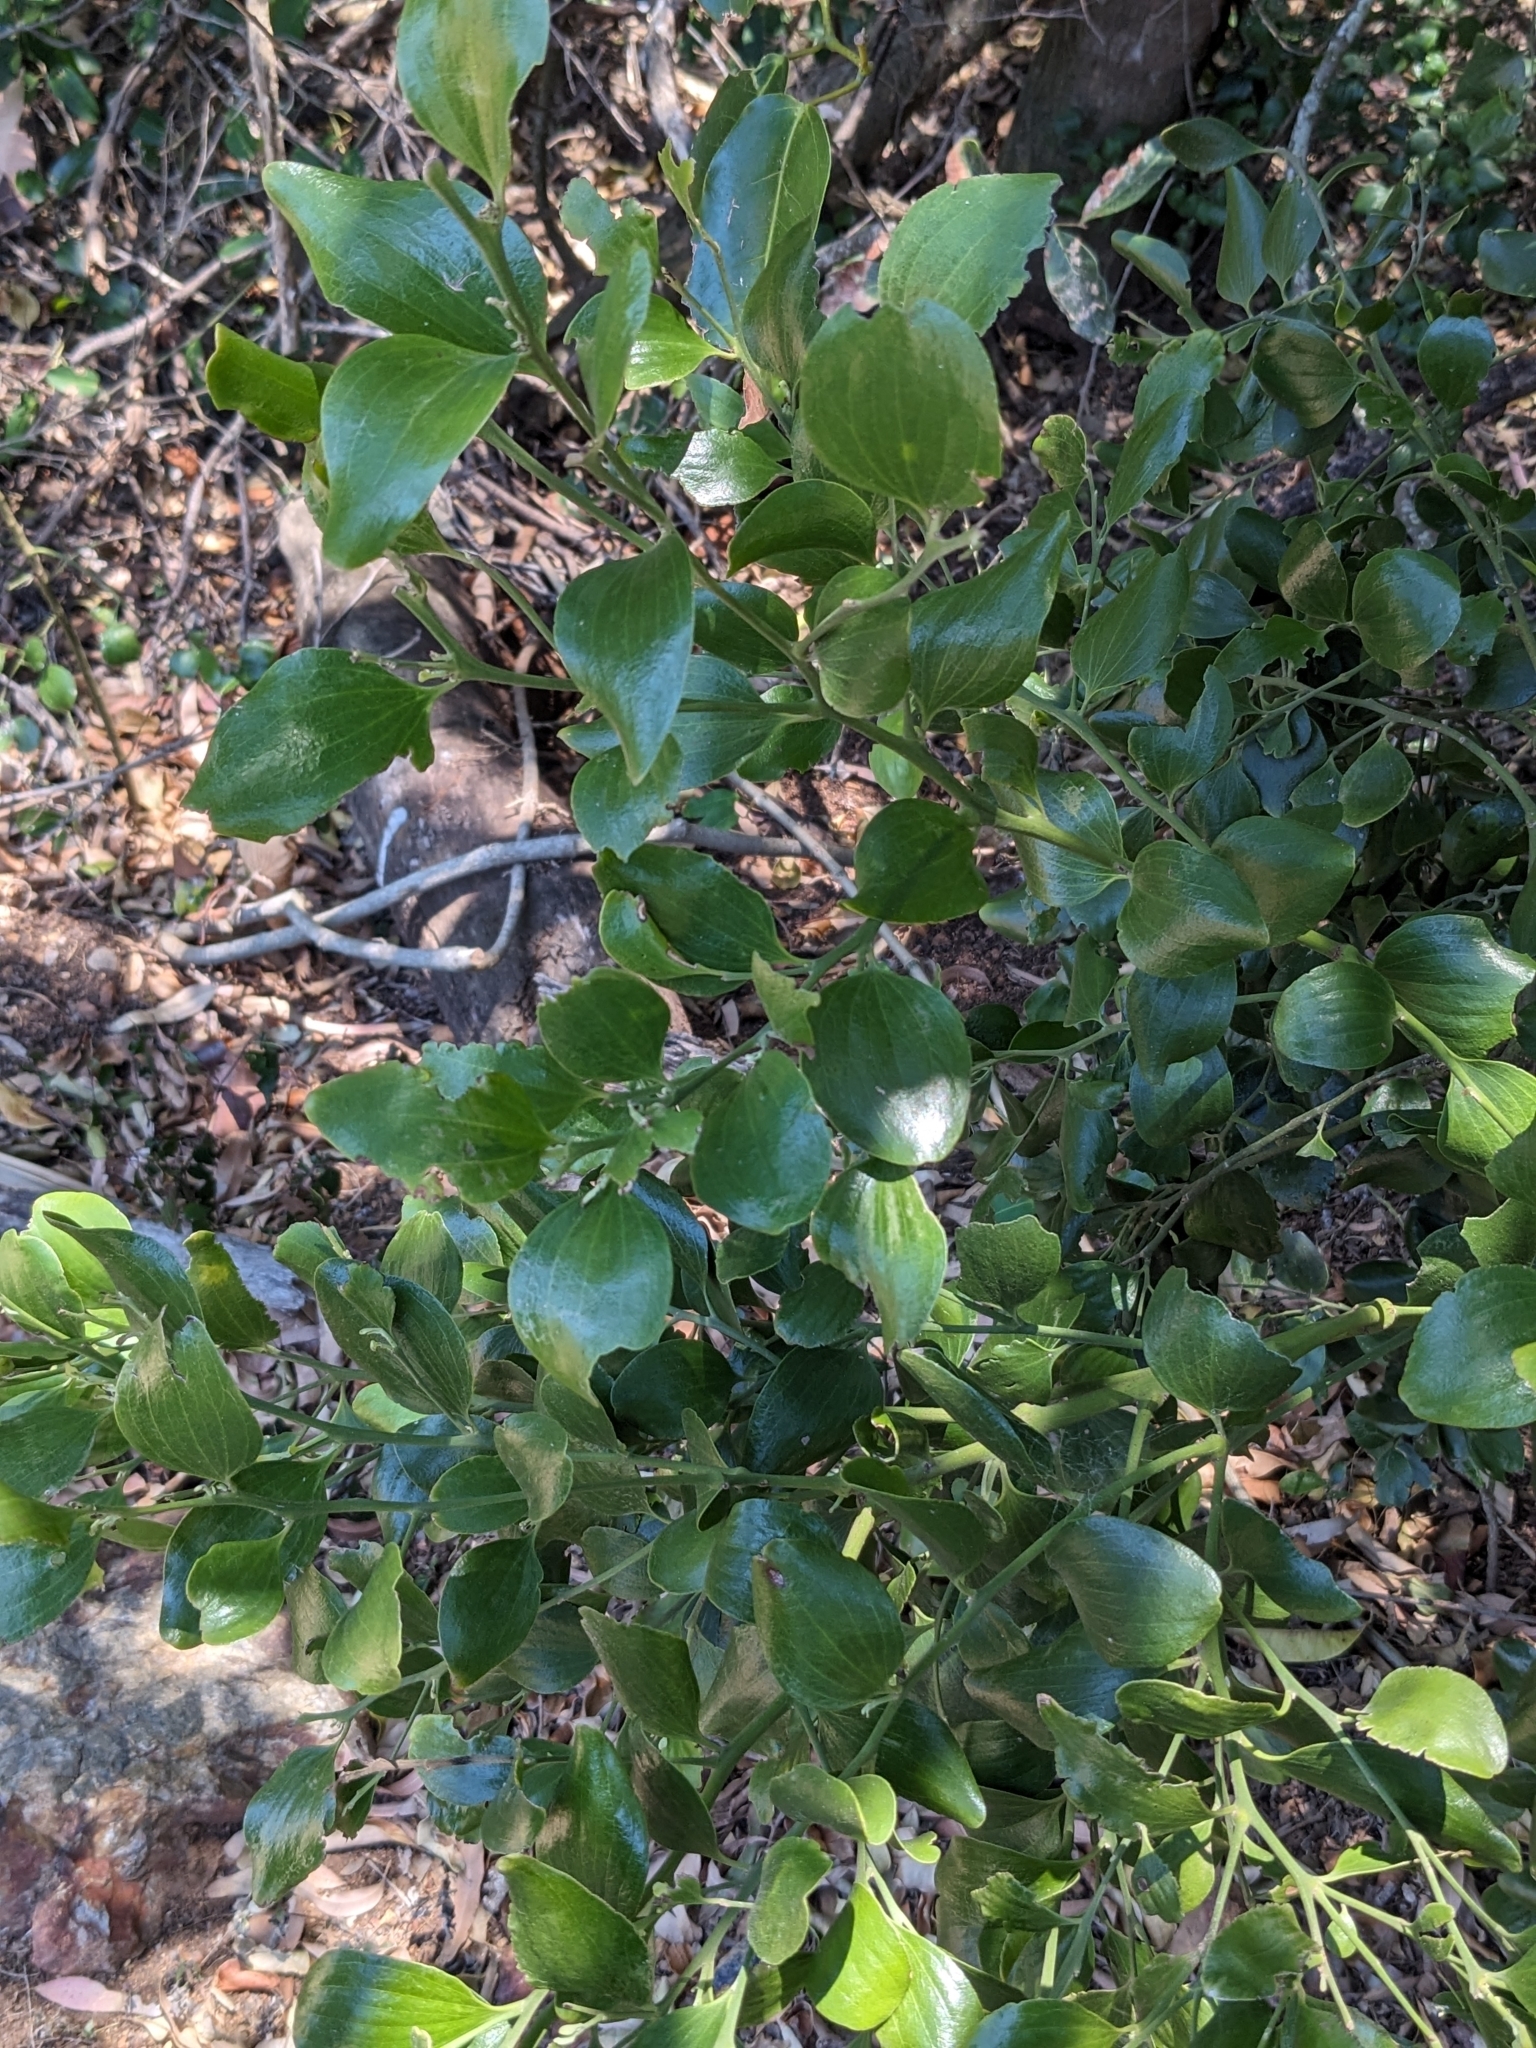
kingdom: Plantae
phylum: Tracheophyta
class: Magnoliopsida
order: Santalales
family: Santalaceae
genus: Exocarpos
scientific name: Exocarpos latifolius
